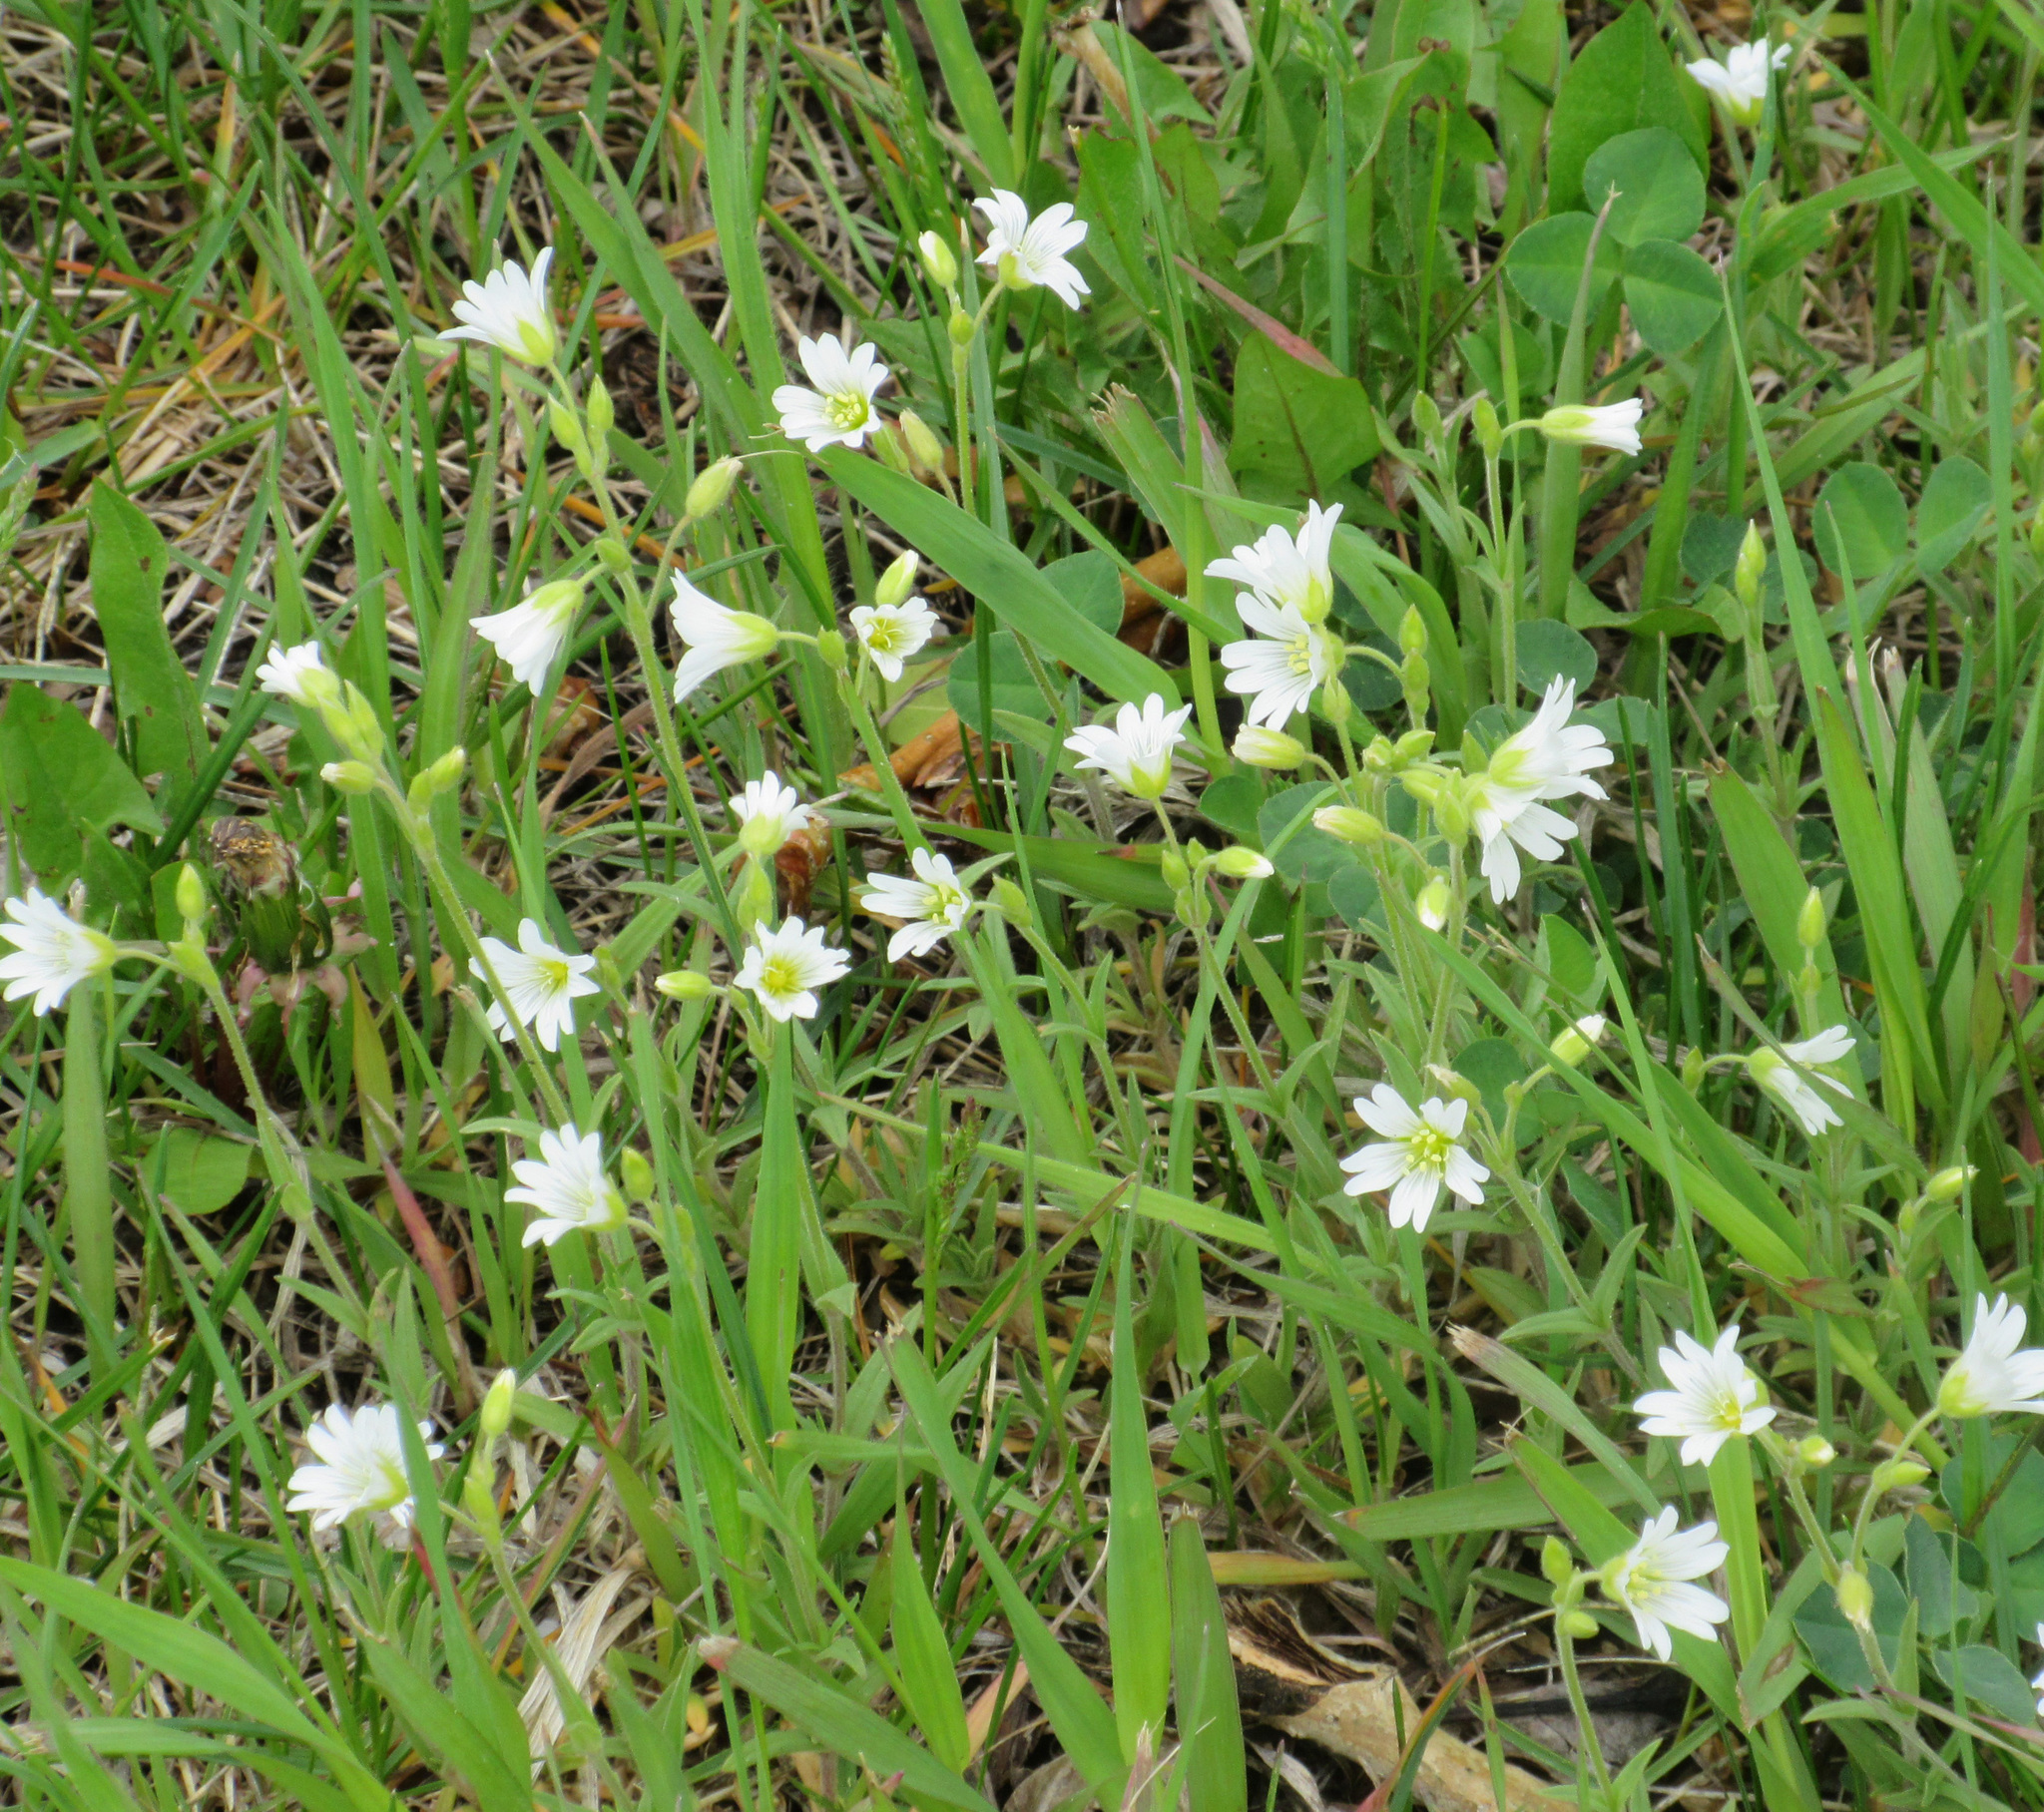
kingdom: Plantae
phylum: Tracheophyta
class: Magnoliopsida
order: Caryophyllales
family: Caryophyllaceae
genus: Cerastium
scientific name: Cerastium arvense
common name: Field mouse-ear
